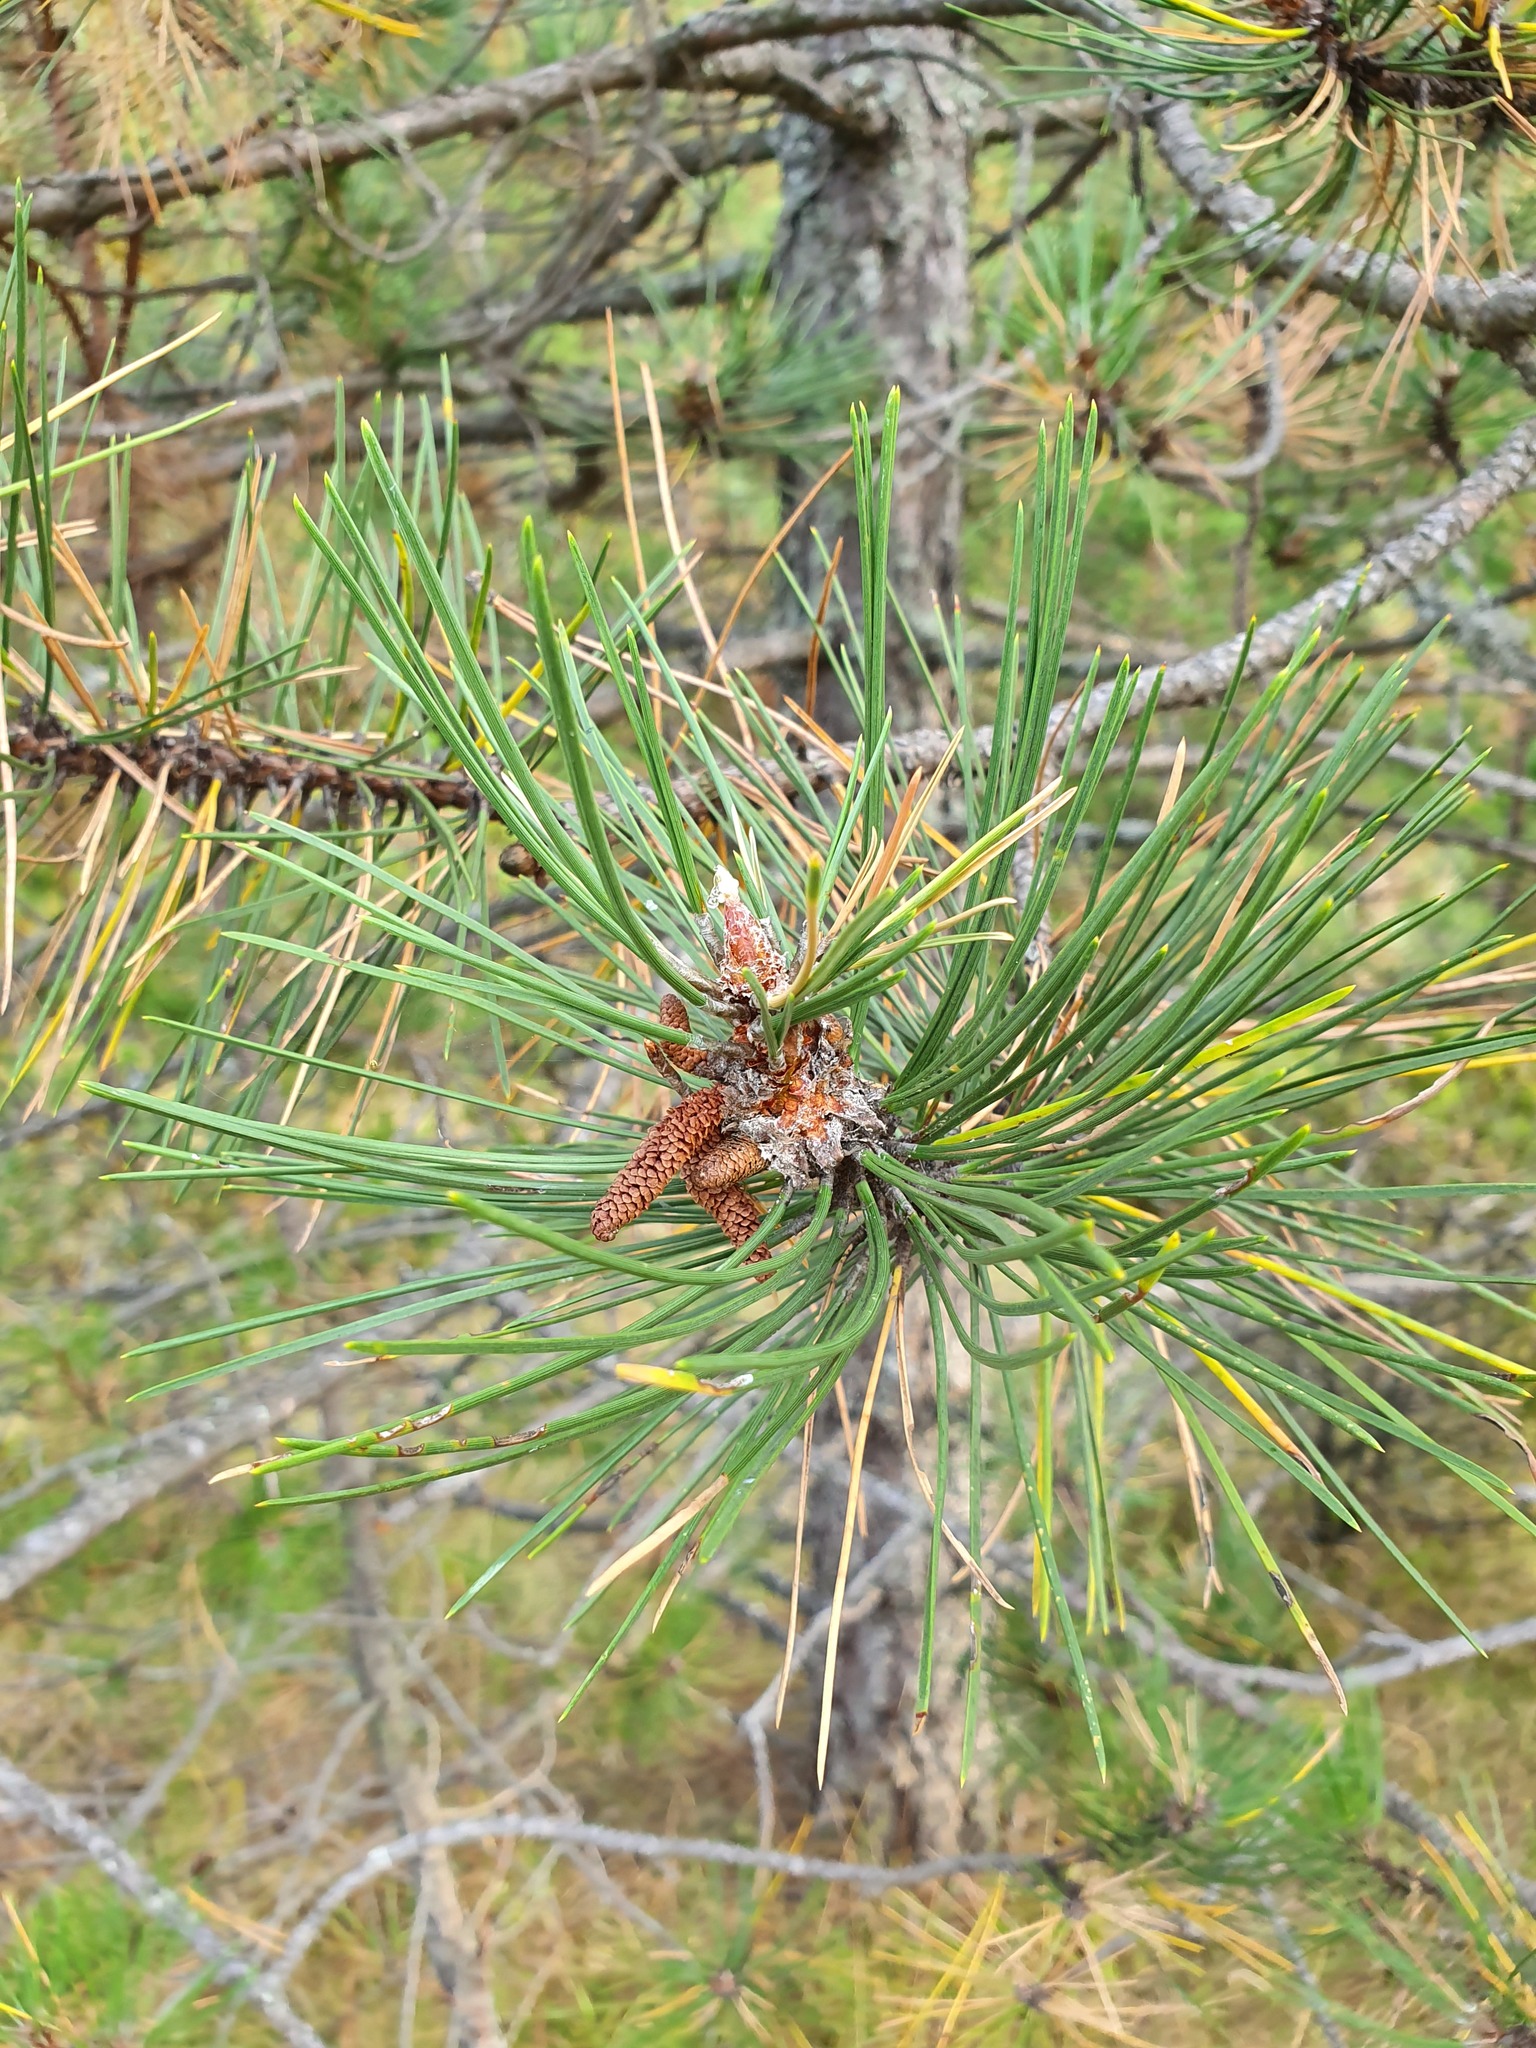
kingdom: Plantae
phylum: Tracheophyta
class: Pinopsida
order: Pinales
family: Pinaceae
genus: Pinus
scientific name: Pinus nigra
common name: Austrian pine
